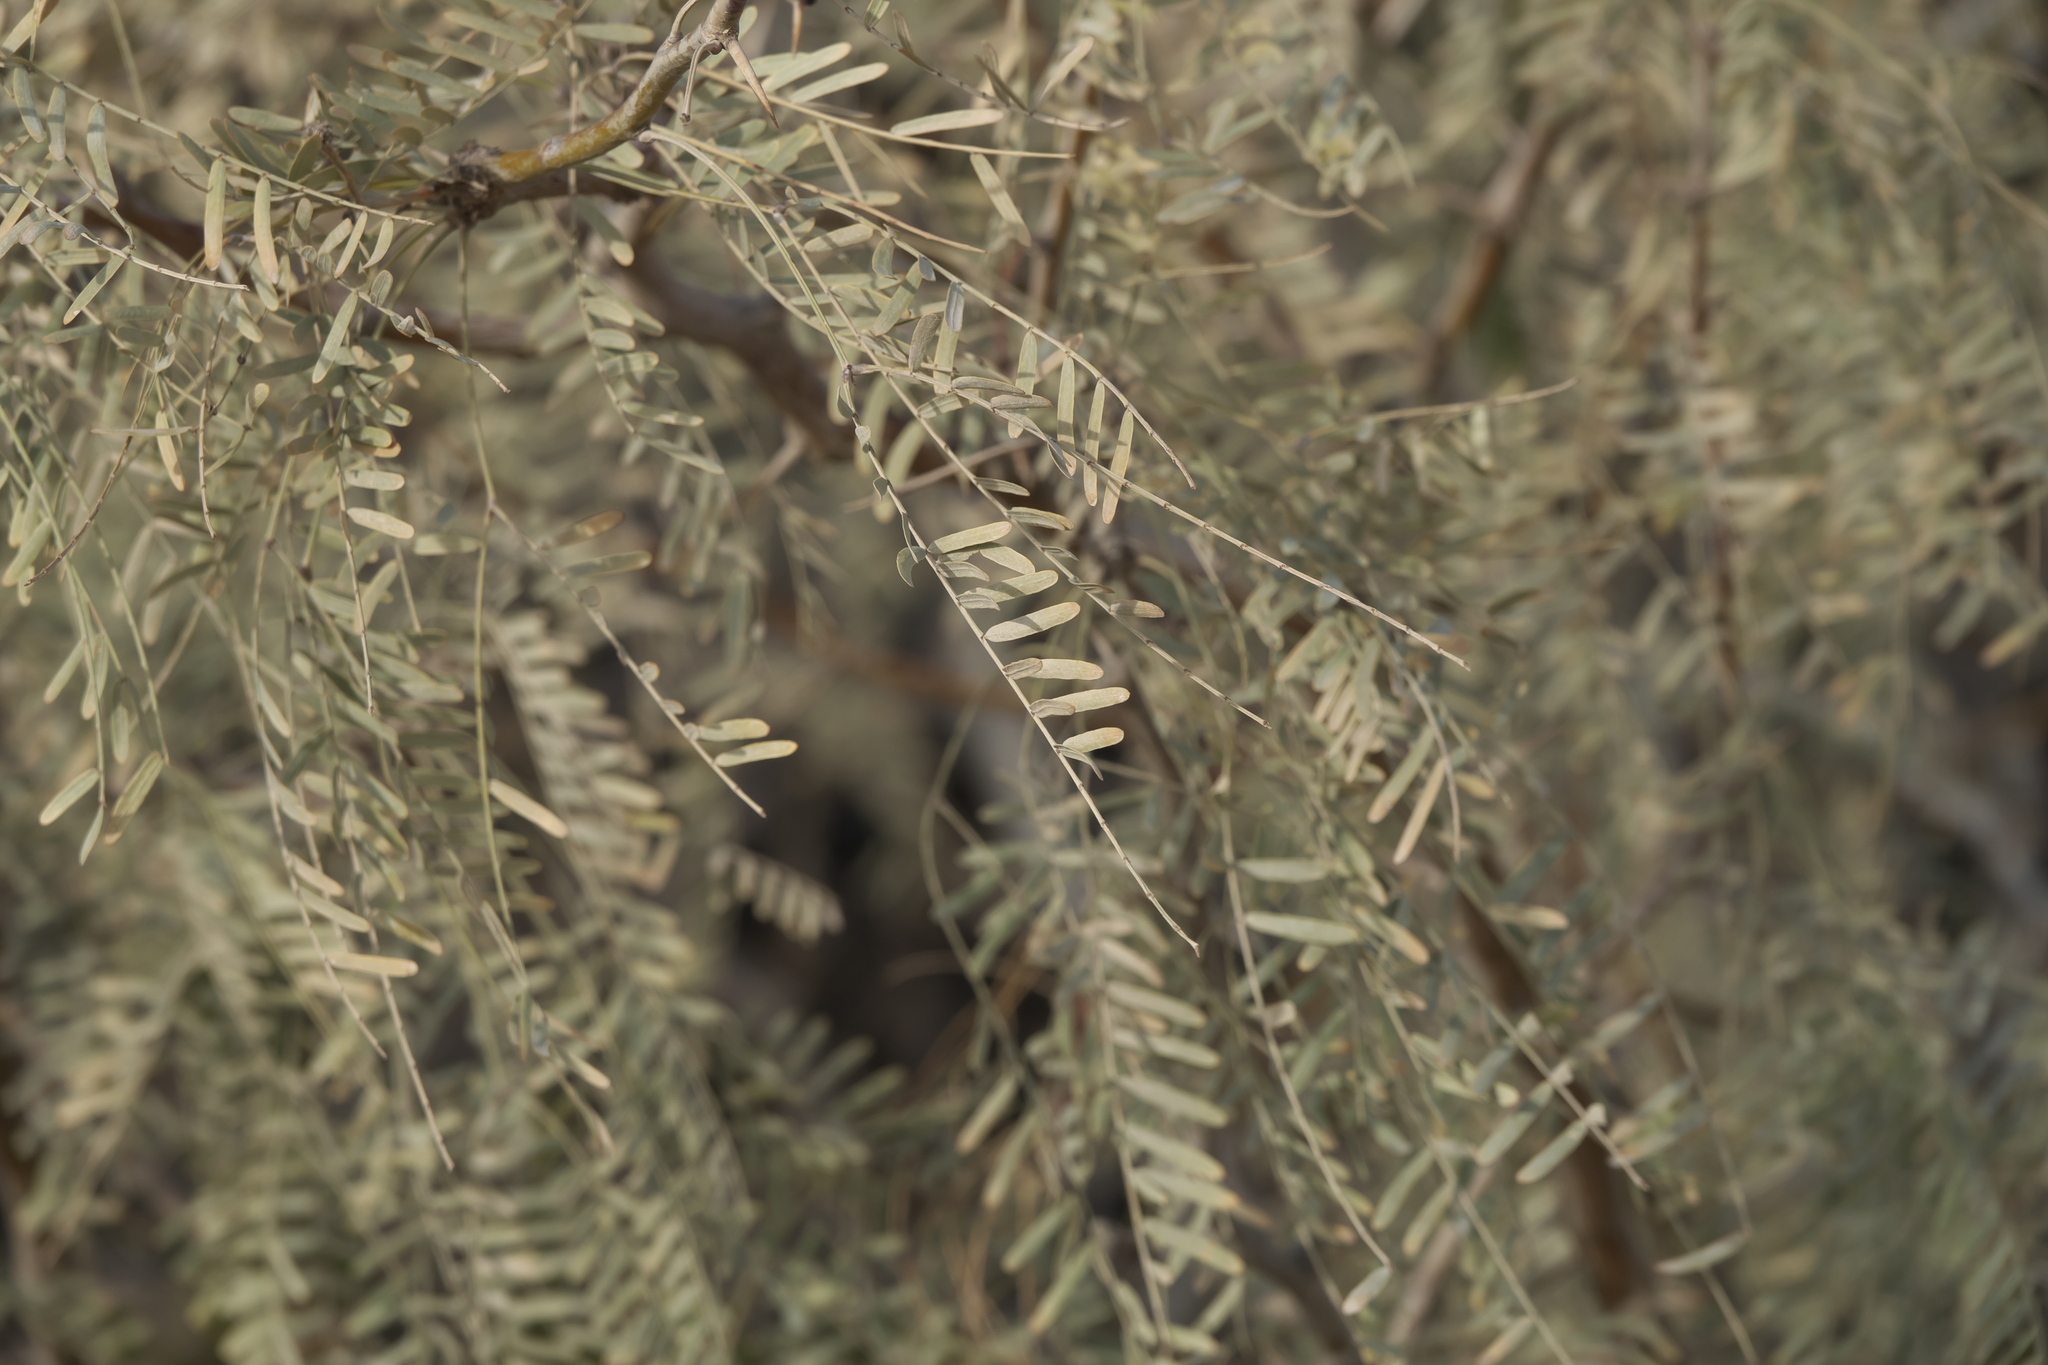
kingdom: Plantae
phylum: Tracheophyta
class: Magnoliopsida
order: Fabales
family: Fabaceae
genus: Prosopis
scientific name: Prosopis glandulosa
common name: Honey mesquite
